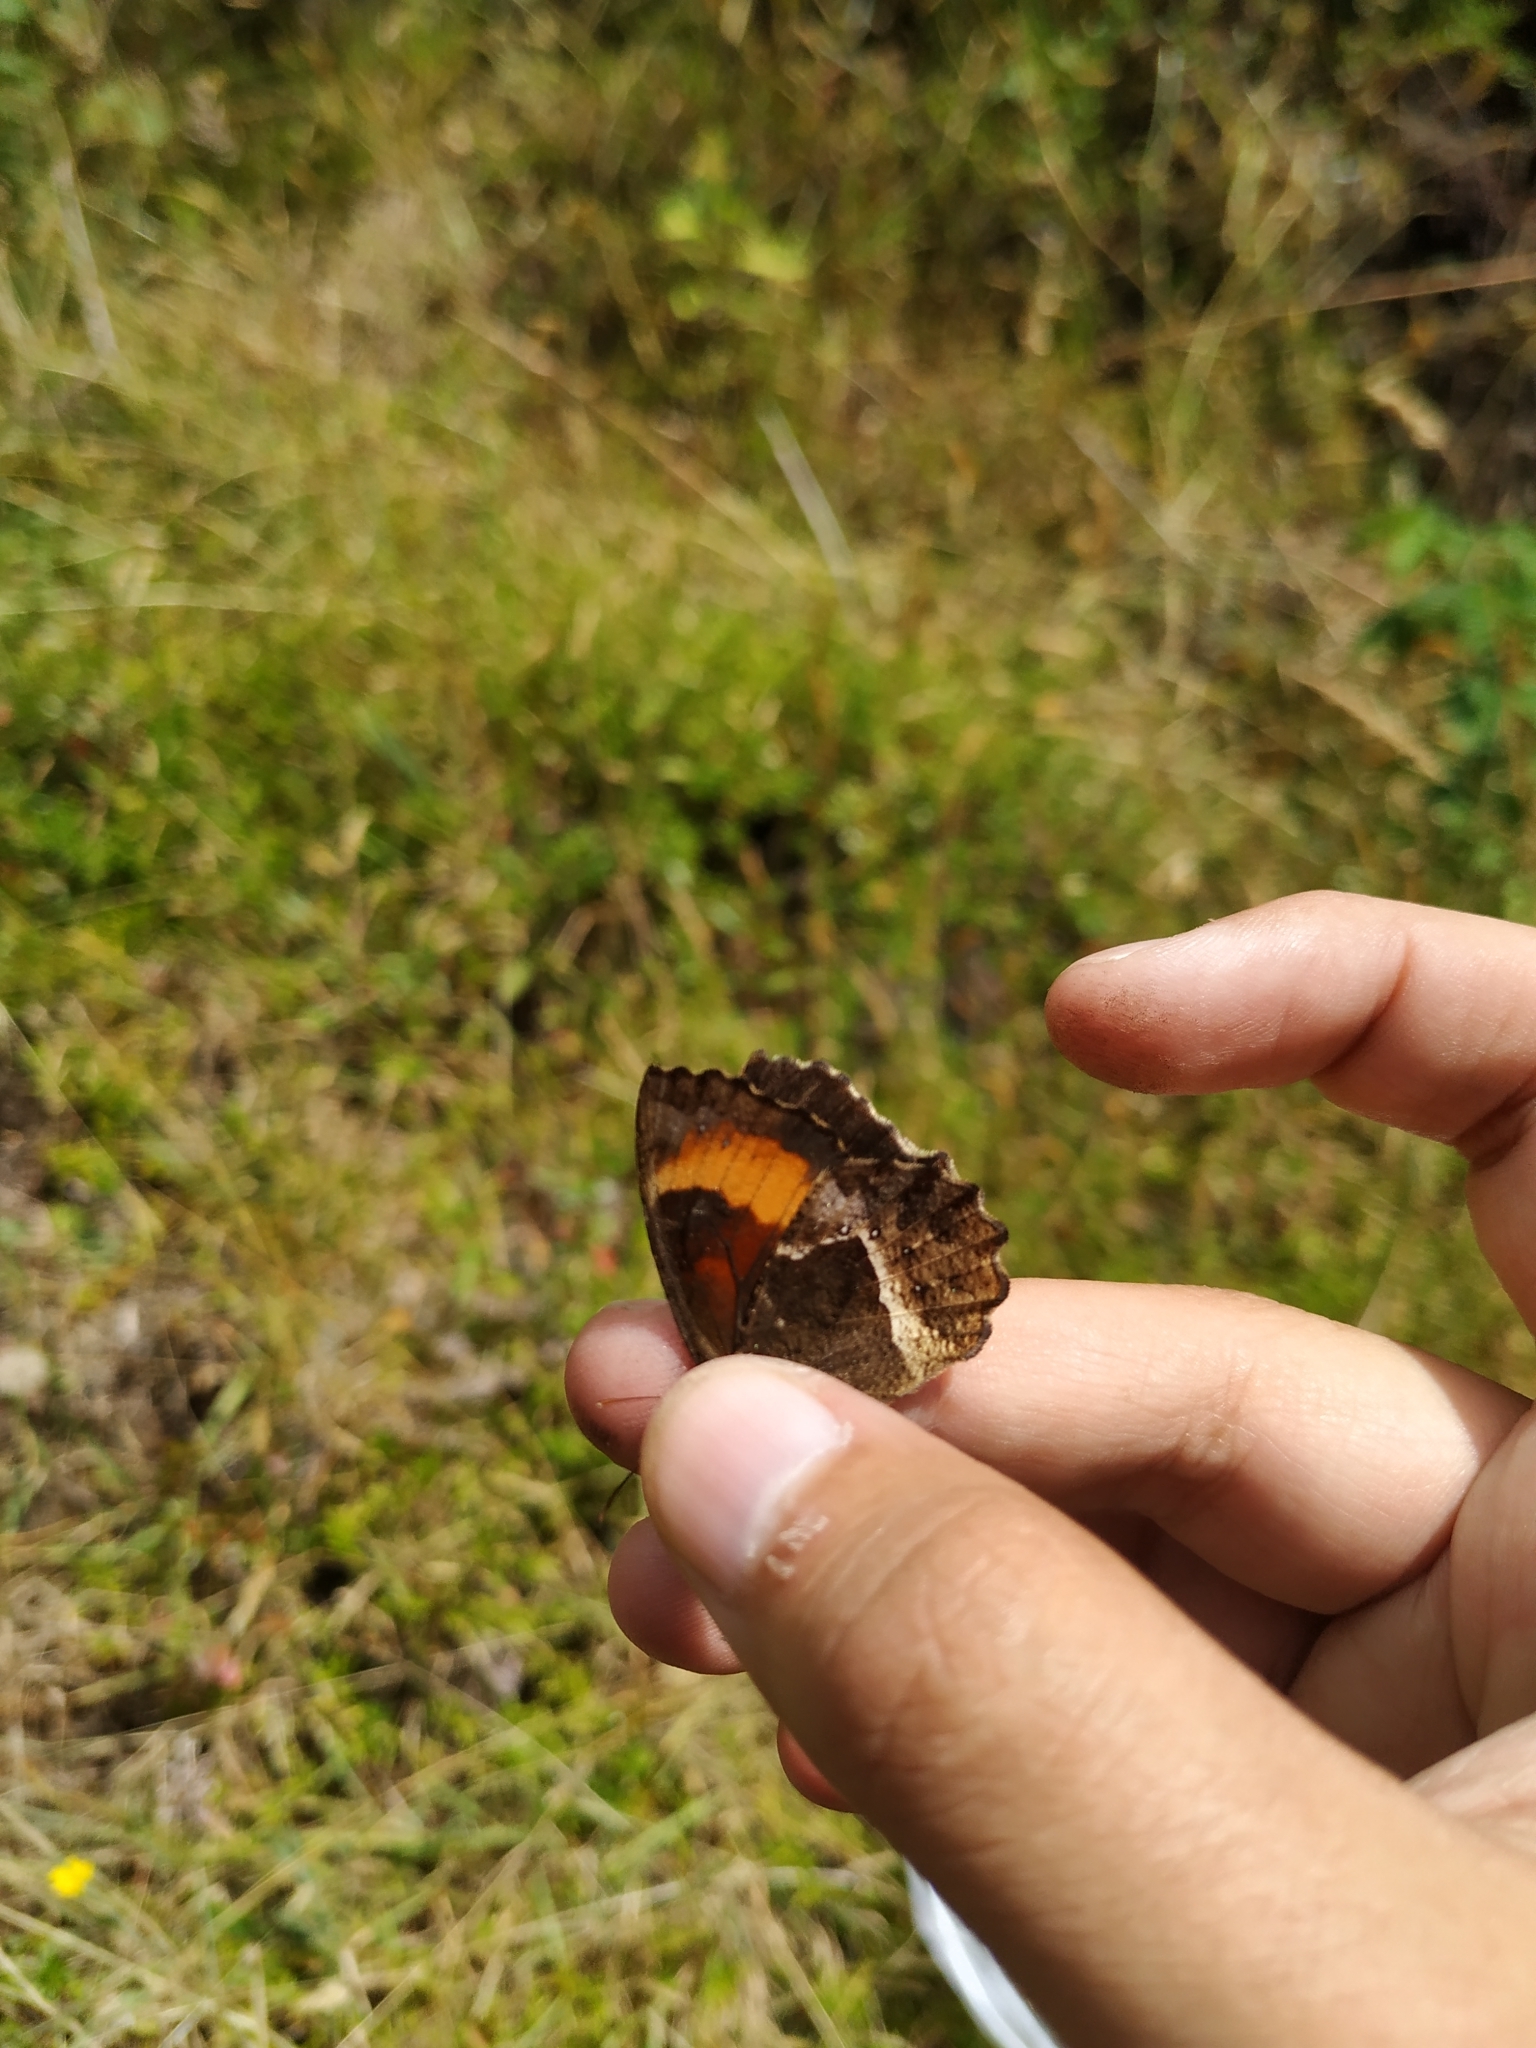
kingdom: Animalia
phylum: Arthropoda
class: Insecta
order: Lepidoptera
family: Nymphalidae
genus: Pedaliodes
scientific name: Pedaliodes phaea
